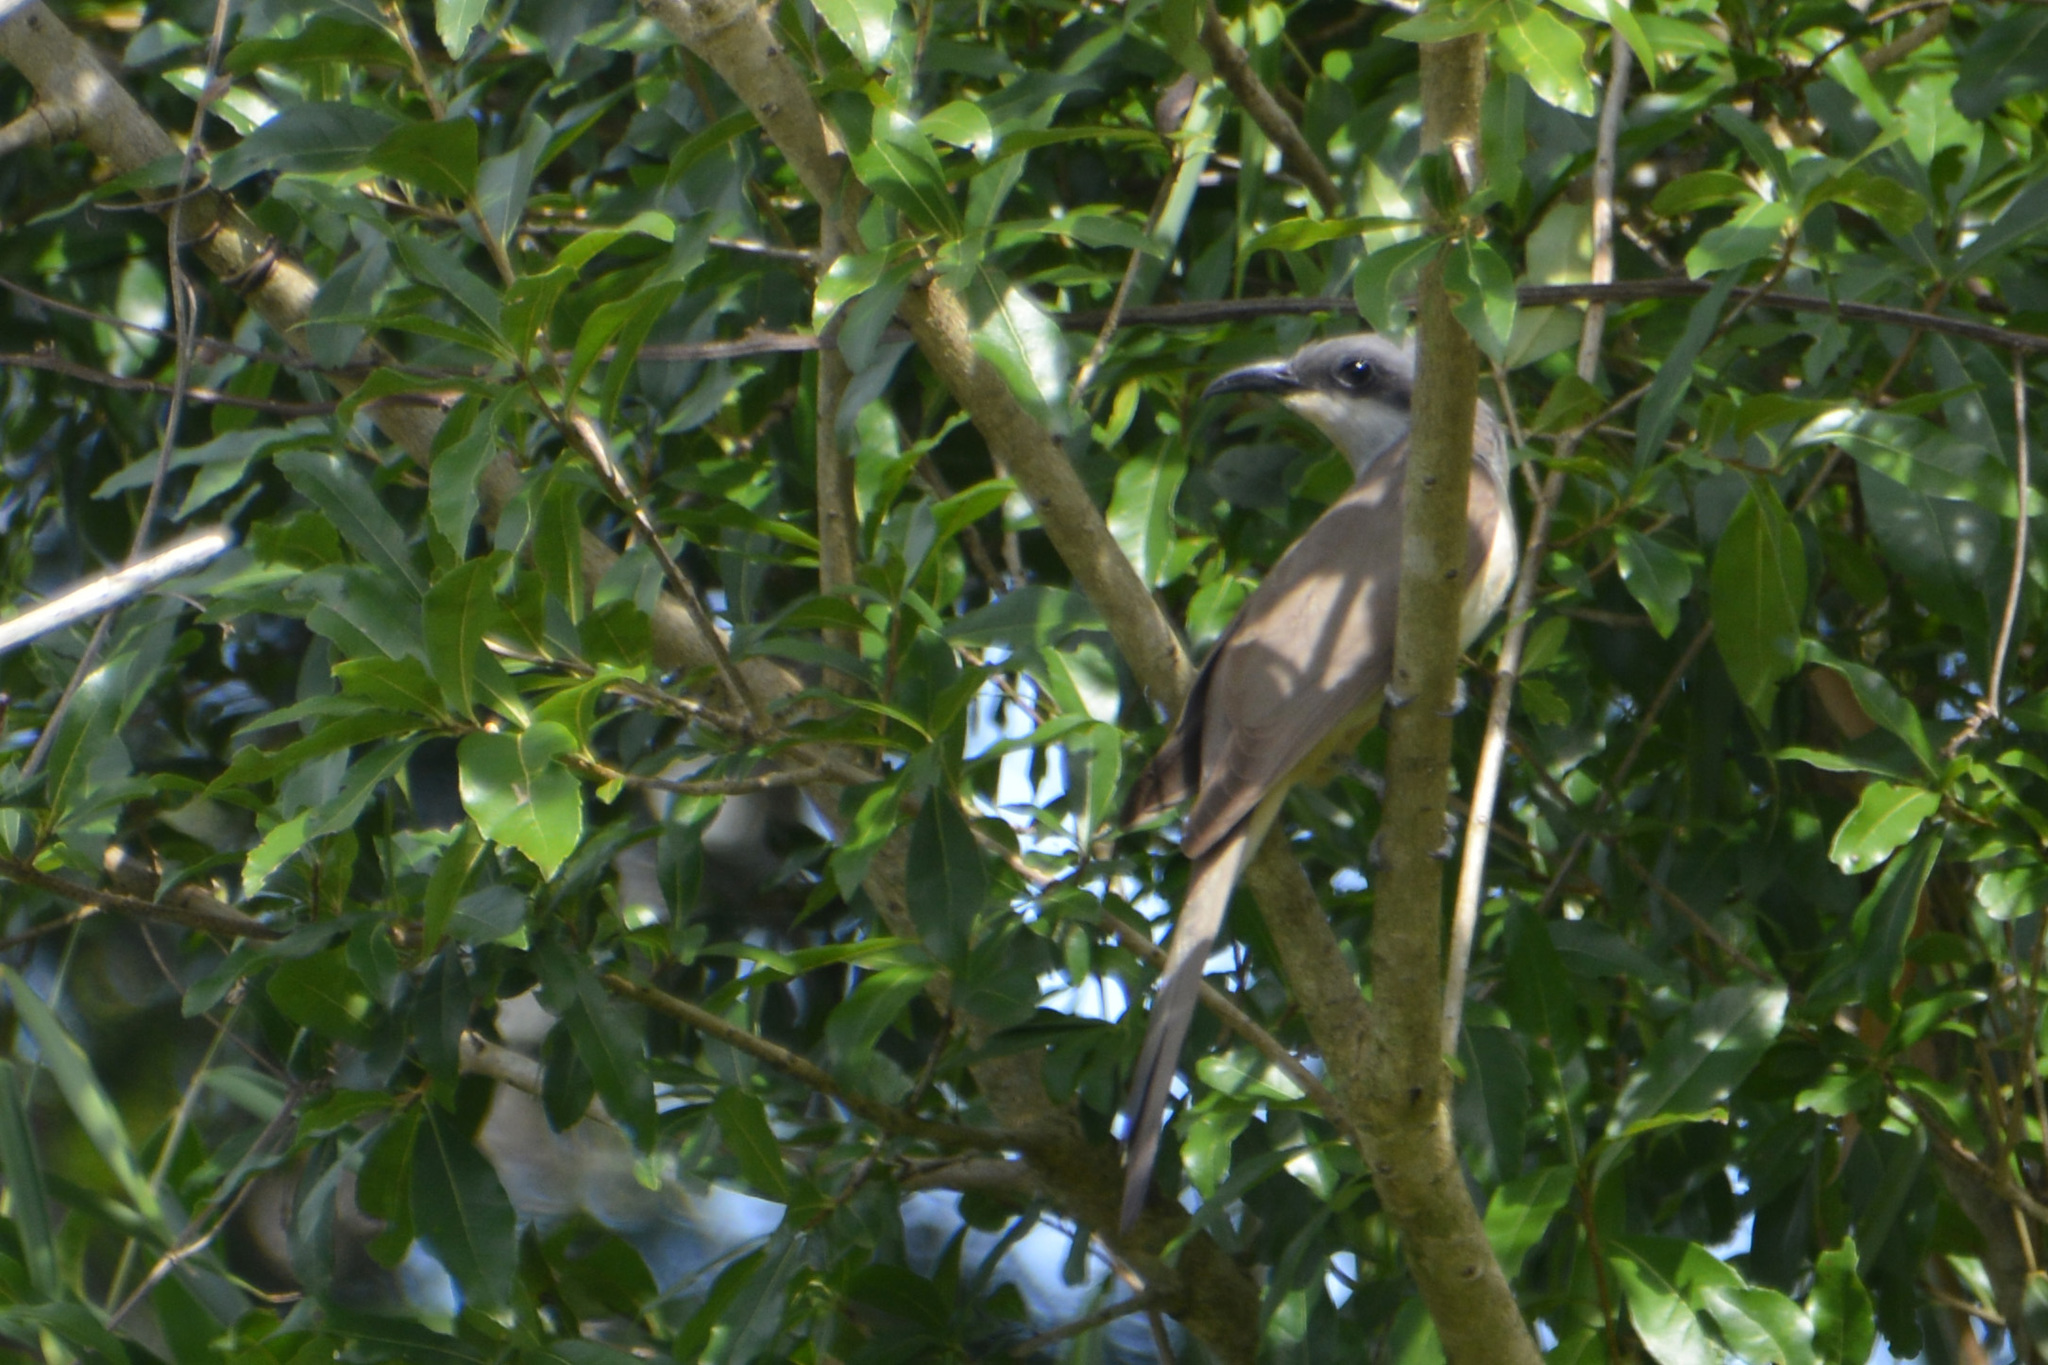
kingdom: Animalia
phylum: Chordata
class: Aves
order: Cuculiformes
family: Cuculidae
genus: Coccyzus
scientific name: Coccyzus melacoryphus
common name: Dark-billed cuckoo
